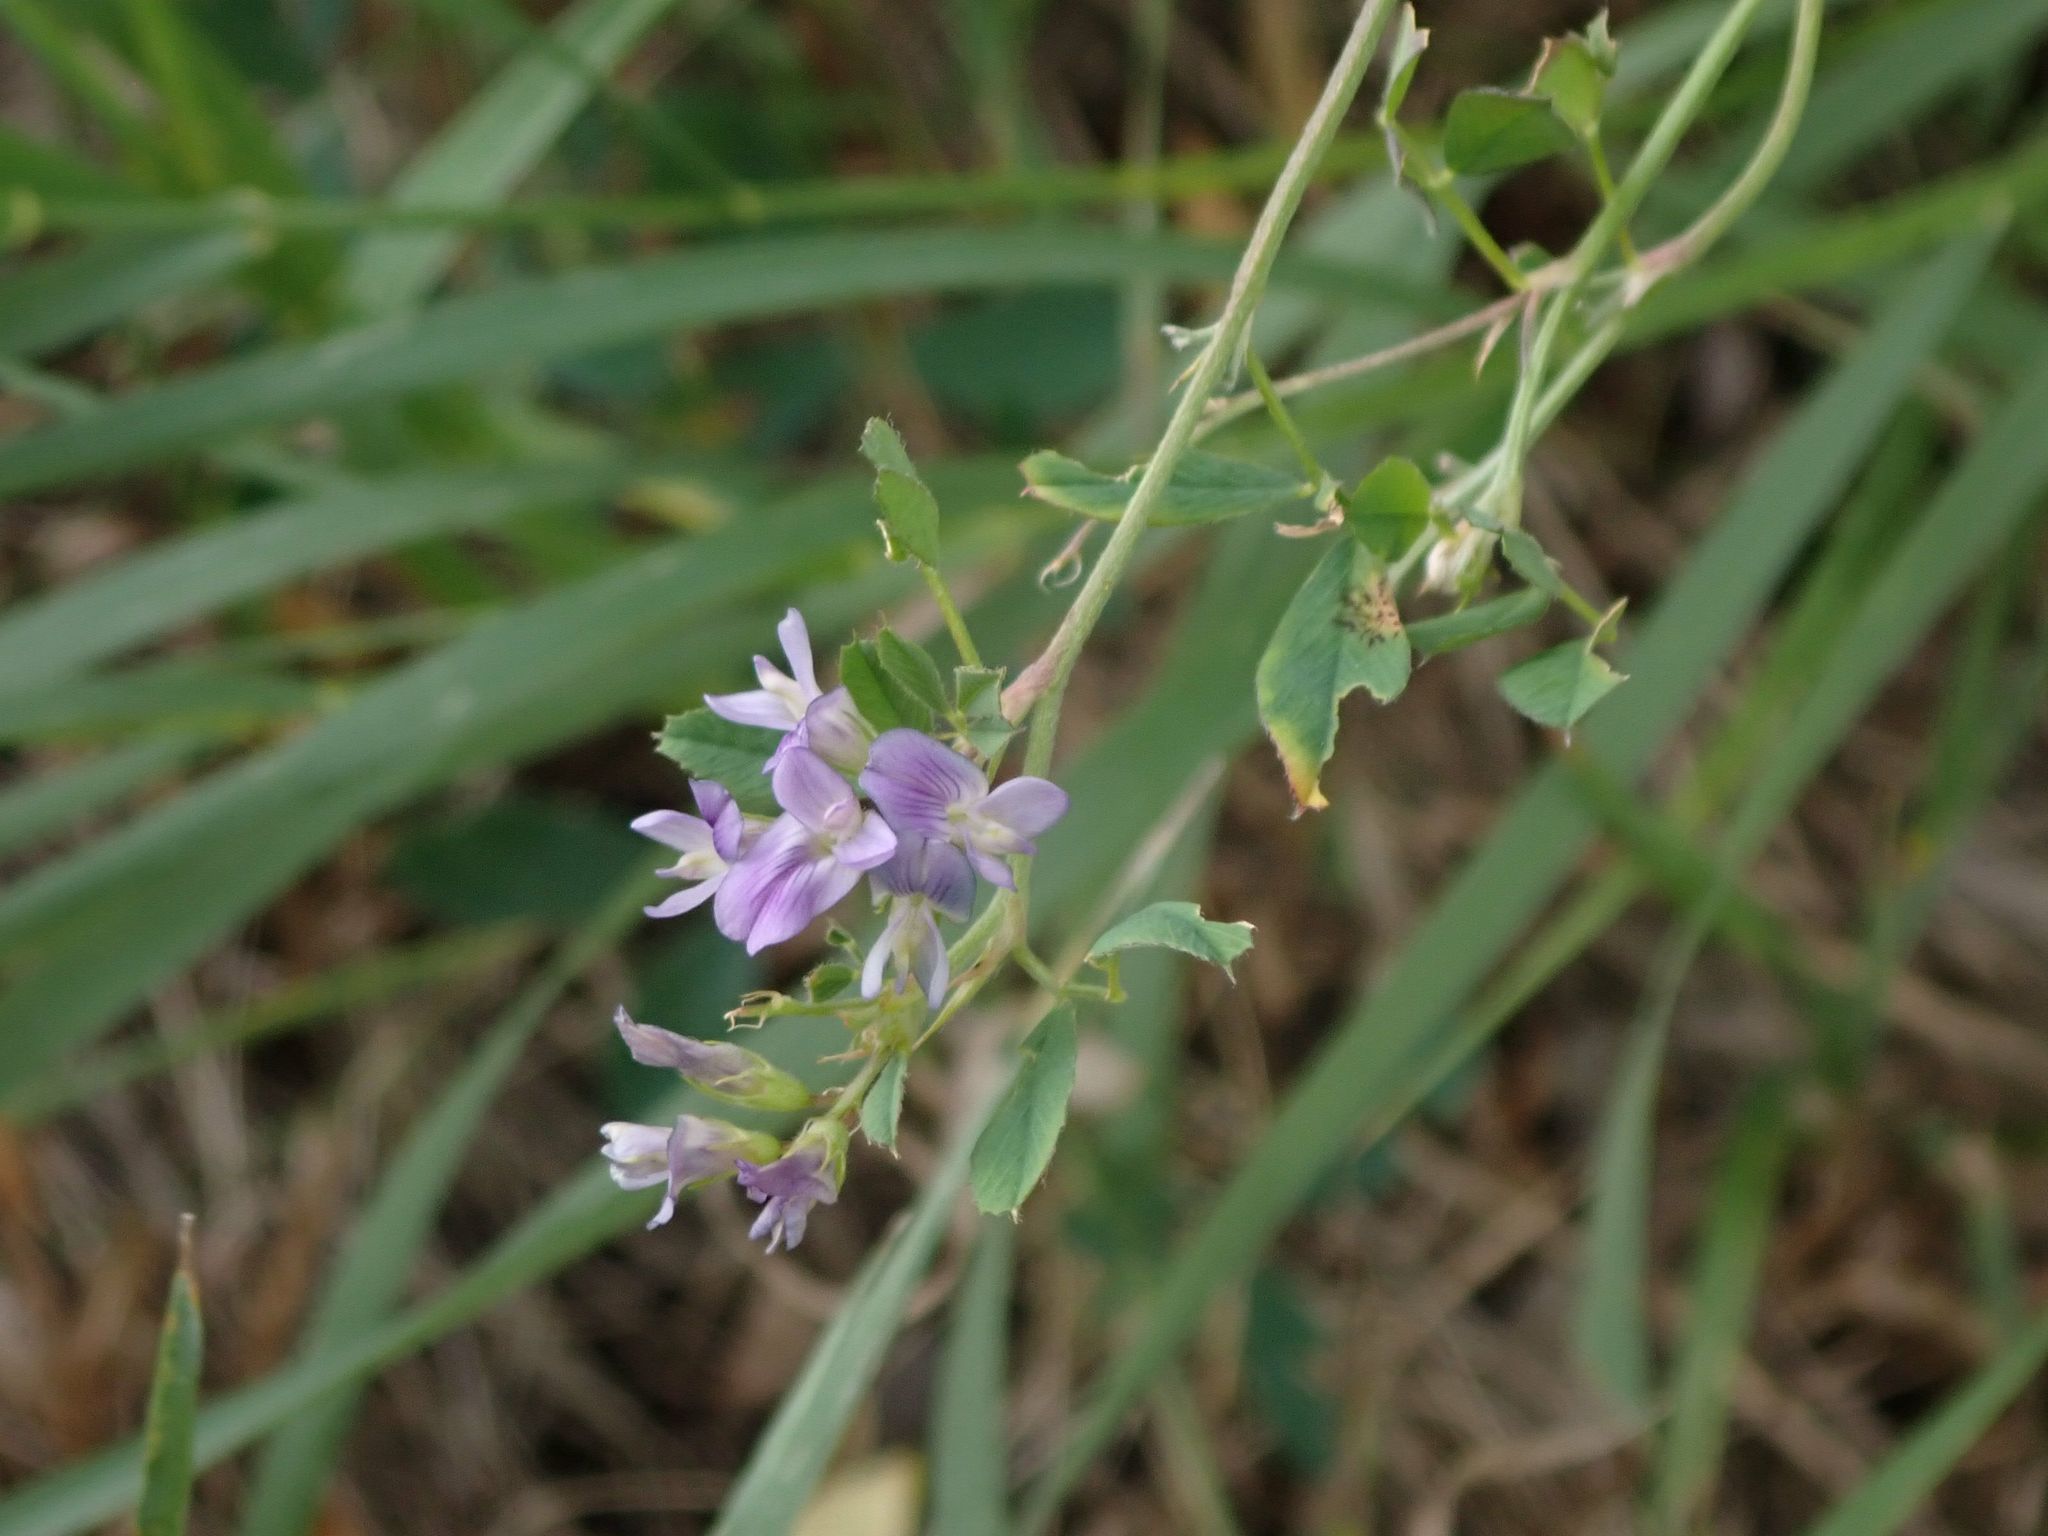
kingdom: Plantae
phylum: Tracheophyta
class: Magnoliopsida
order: Fabales
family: Fabaceae
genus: Medicago
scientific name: Medicago sativa
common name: Alfalfa
